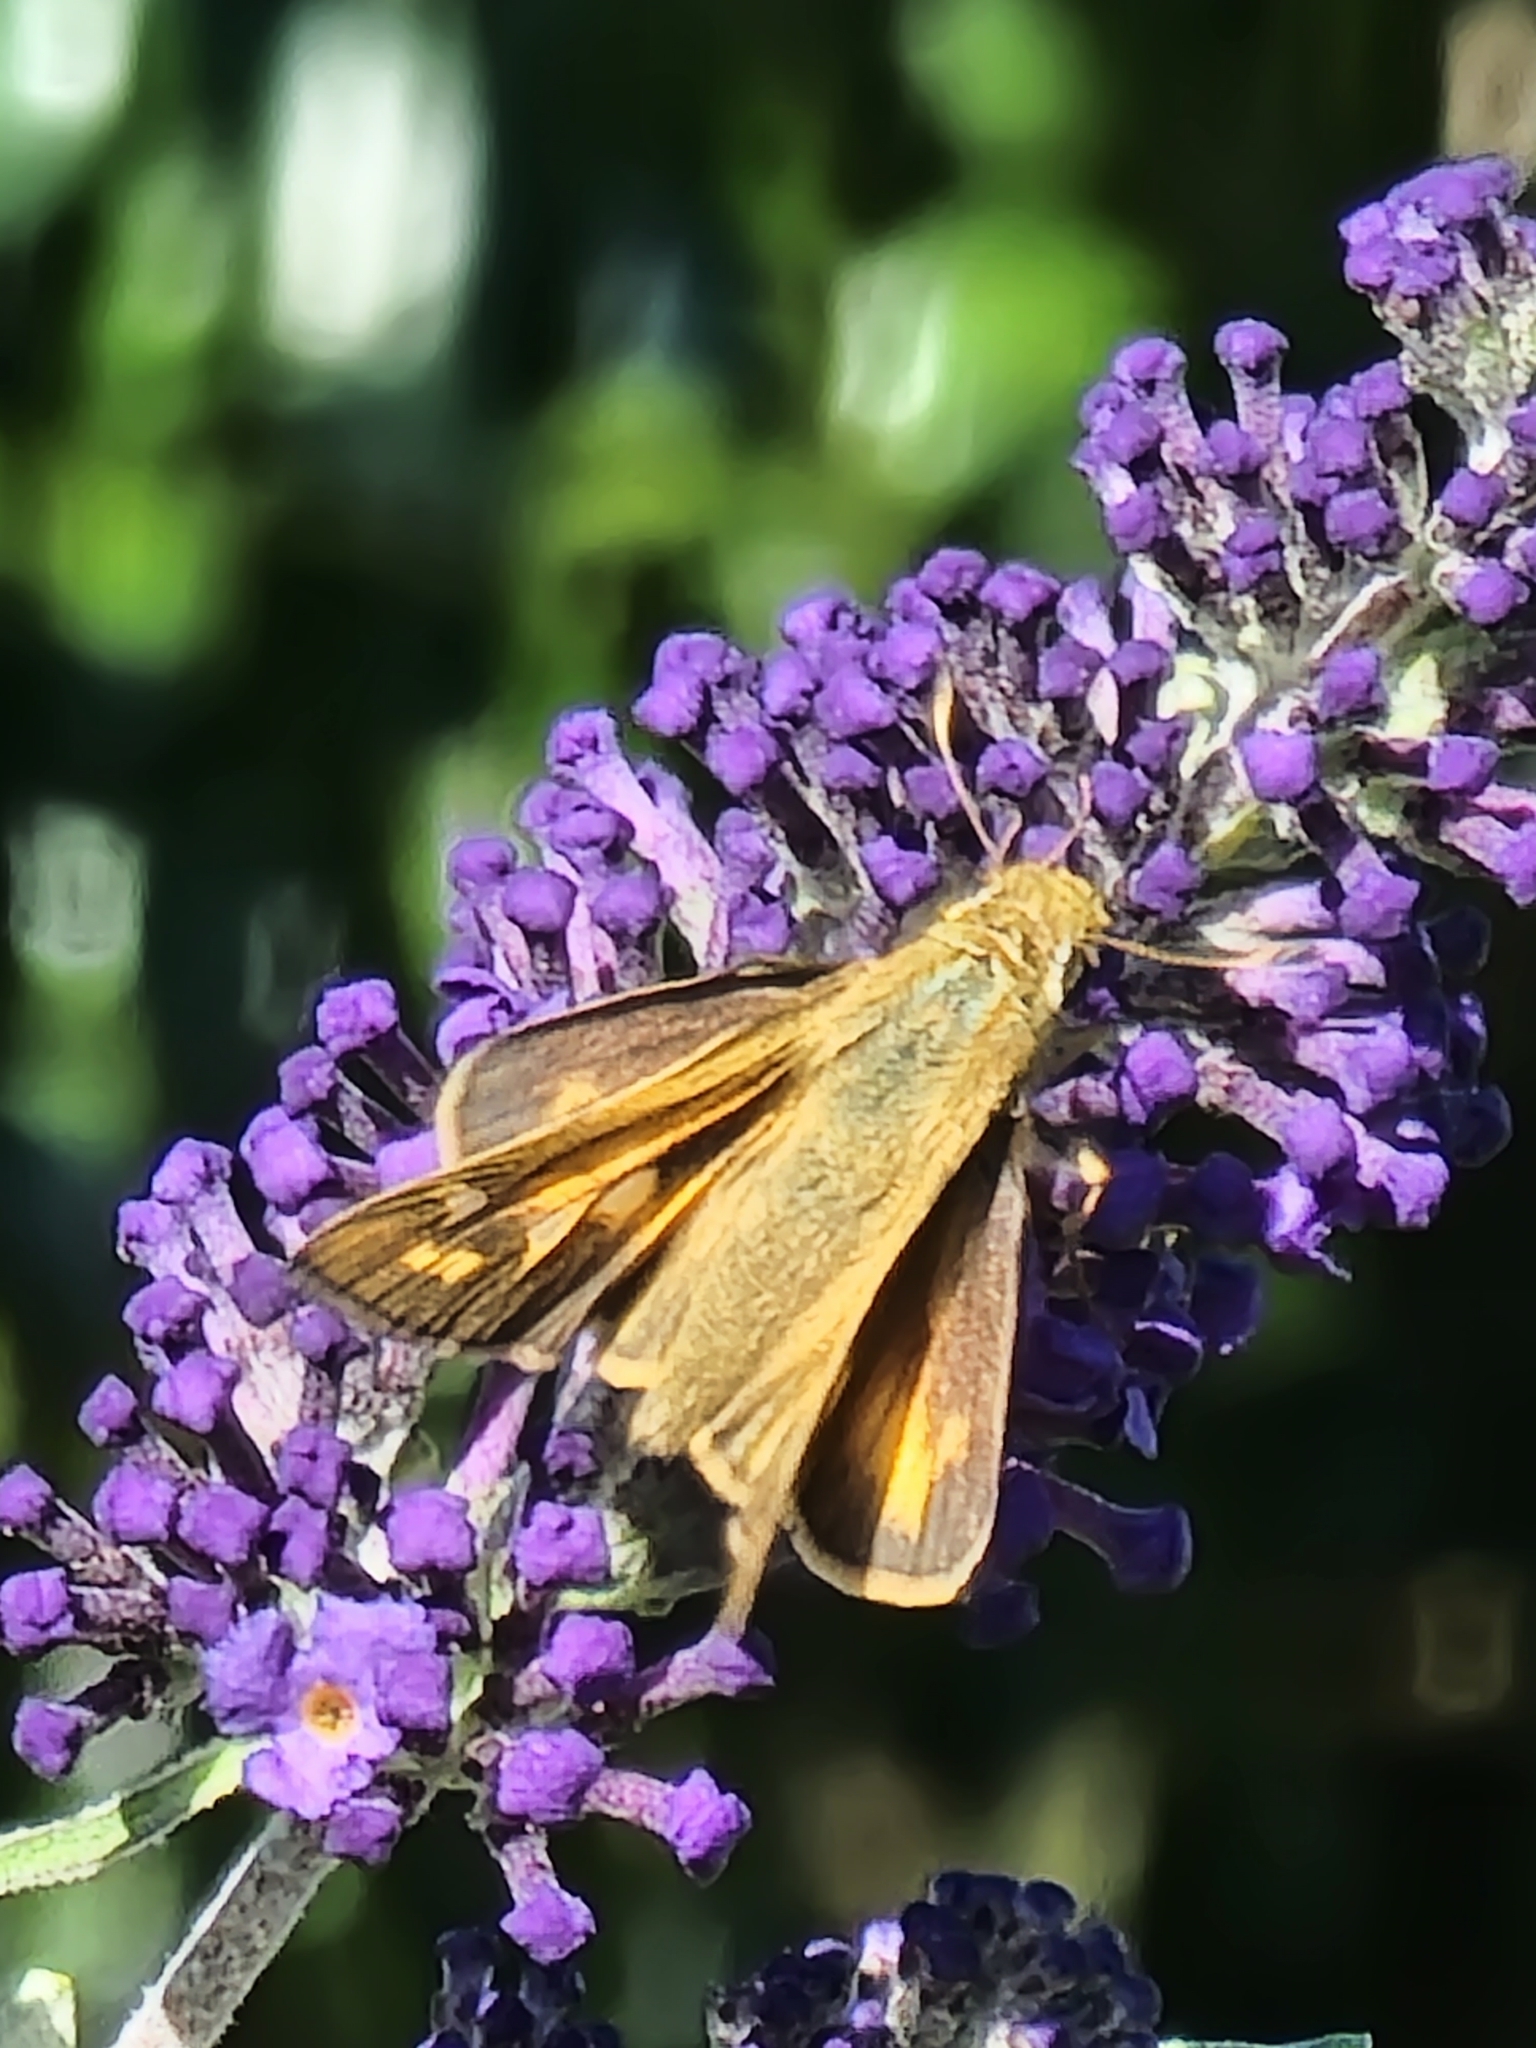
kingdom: Animalia
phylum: Arthropoda
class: Insecta
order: Lepidoptera
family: Hesperiidae
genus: Atalopedes
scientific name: Atalopedes
